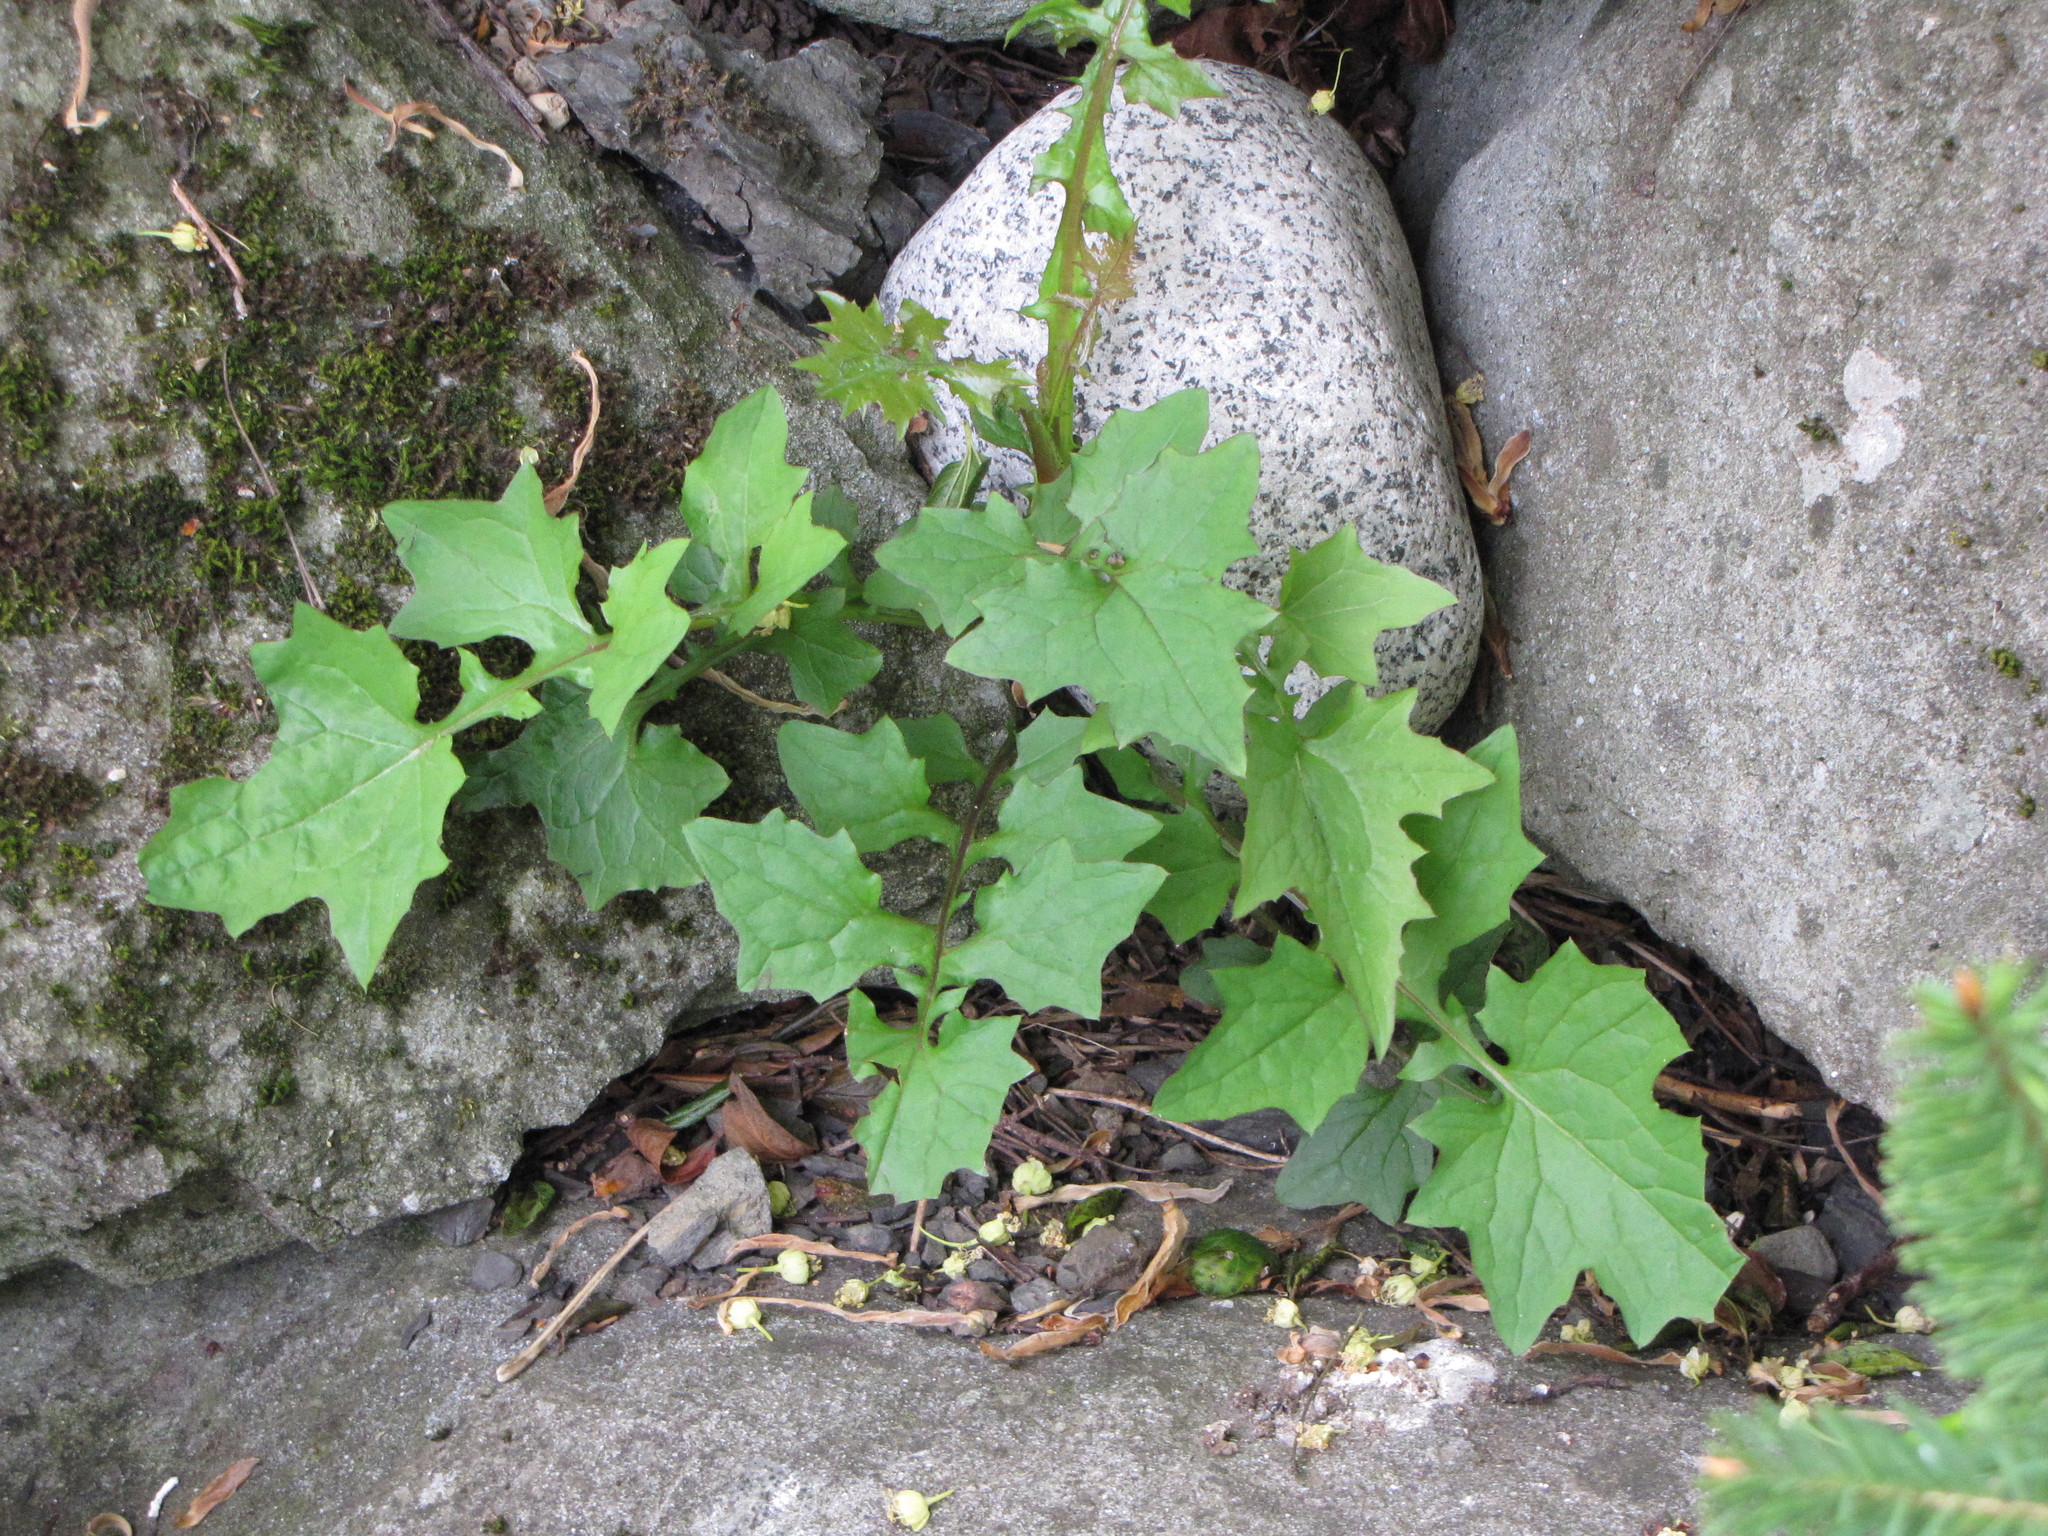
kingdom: Plantae
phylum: Tracheophyta
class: Magnoliopsida
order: Asterales
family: Asteraceae
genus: Mycelis
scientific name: Mycelis muralis
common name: Wall lettuce
